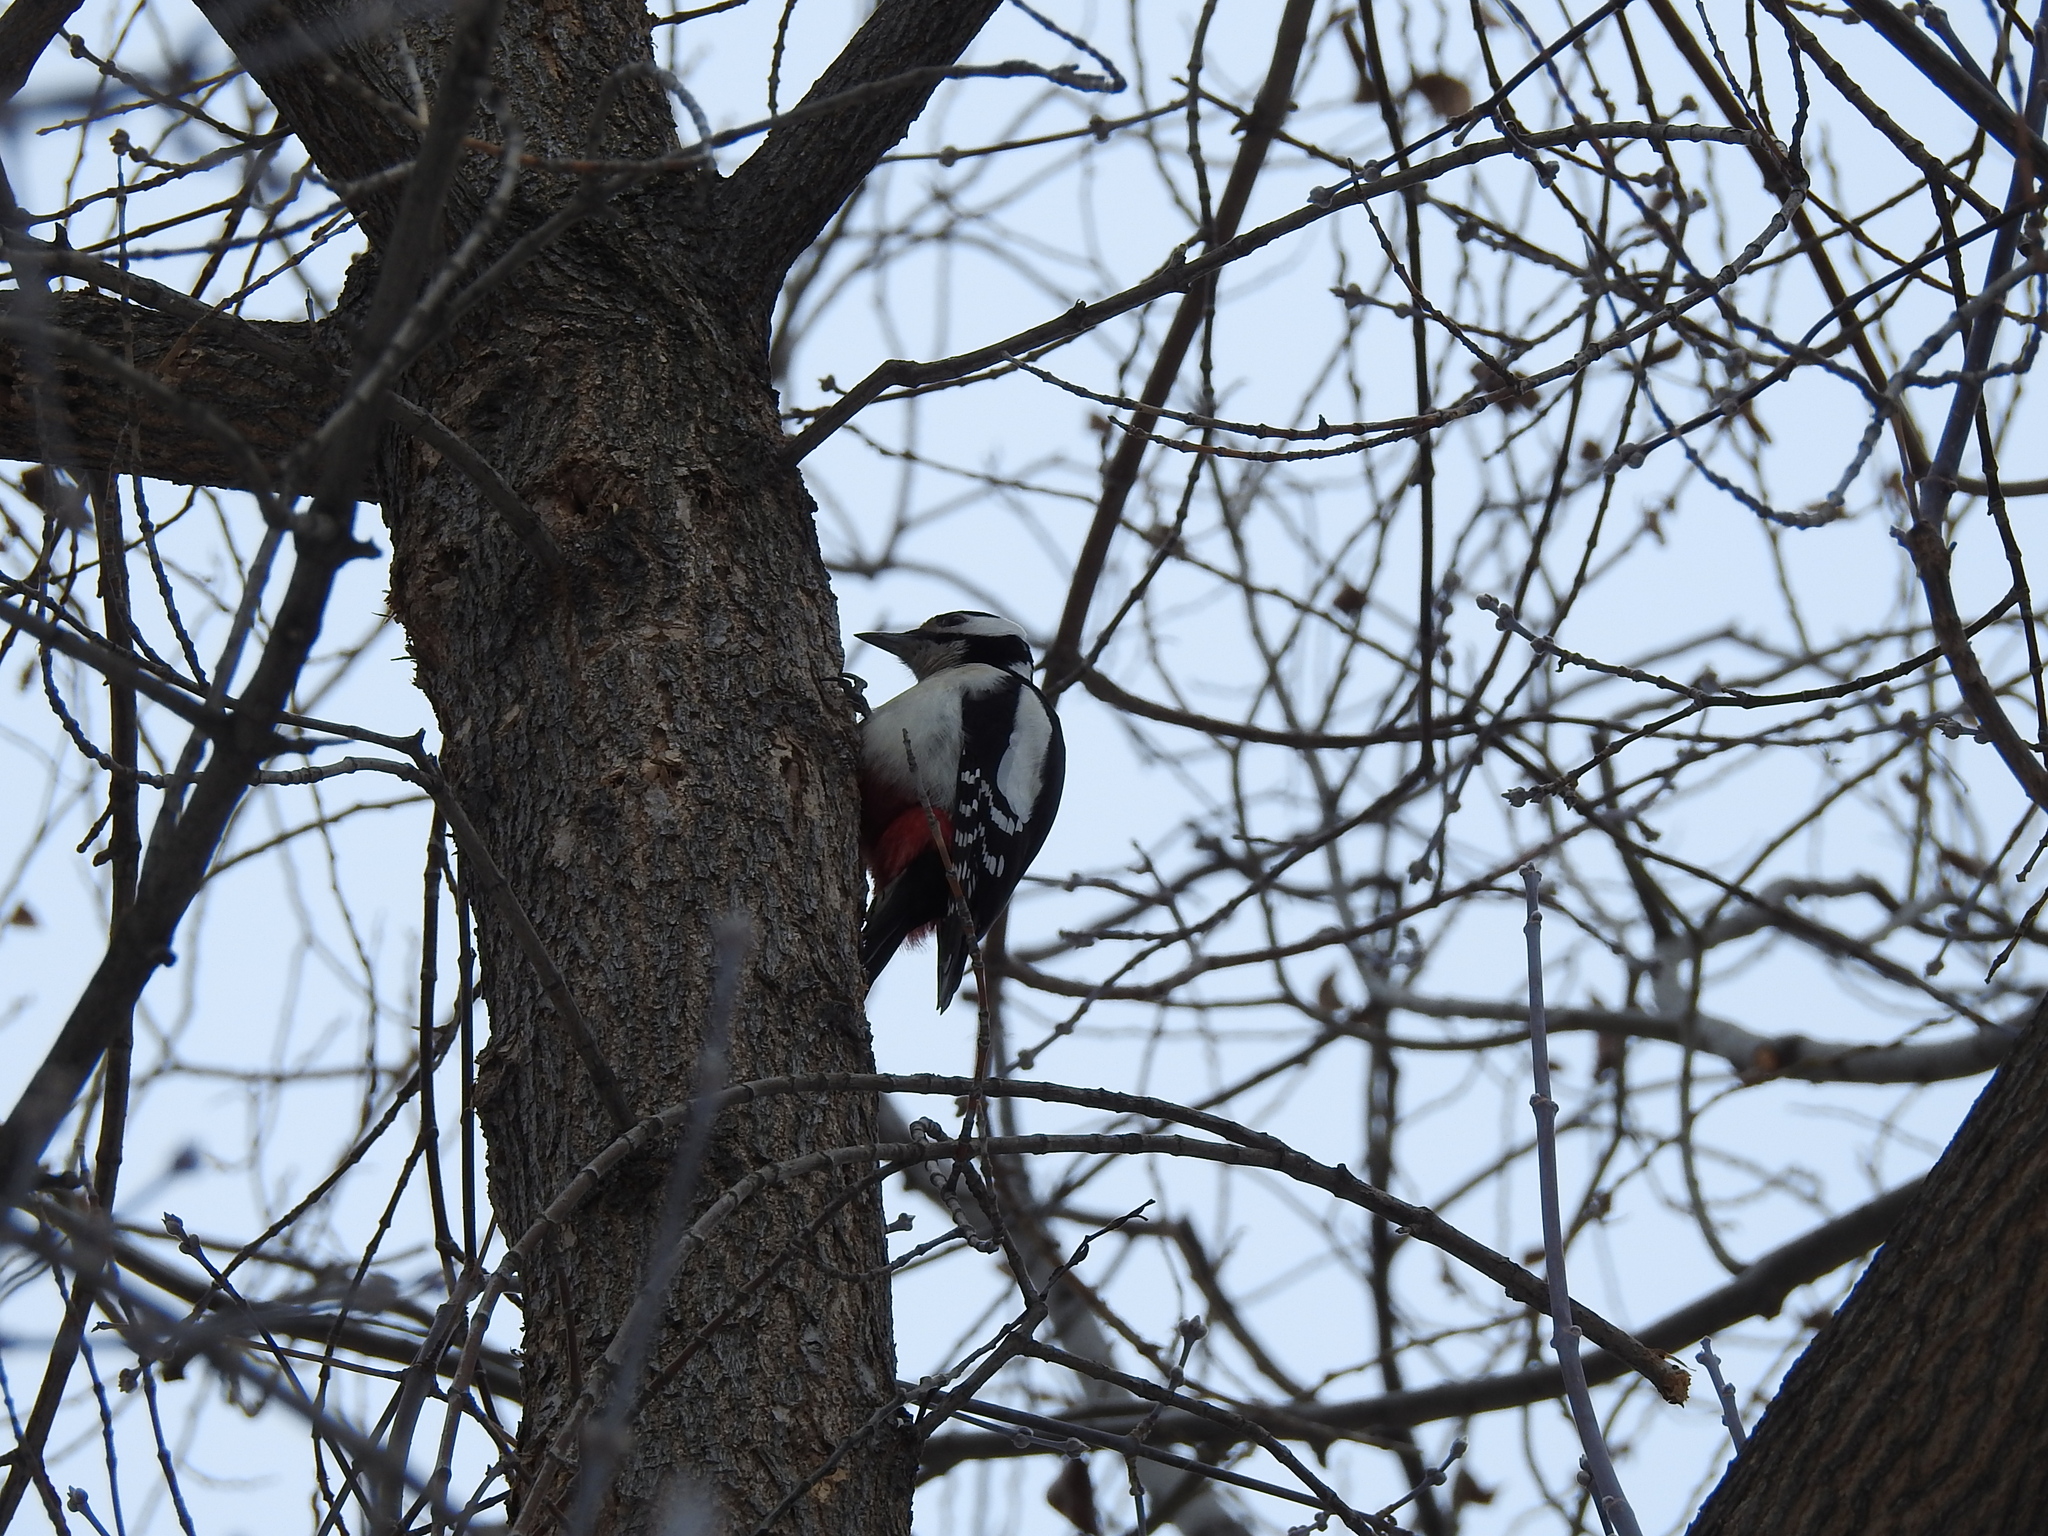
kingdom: Animalia
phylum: Chordata
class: Aves
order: Piciformes
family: Picidae
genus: Dendrocopos
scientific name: Dendrocopos major
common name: Great spotted woodpecker
